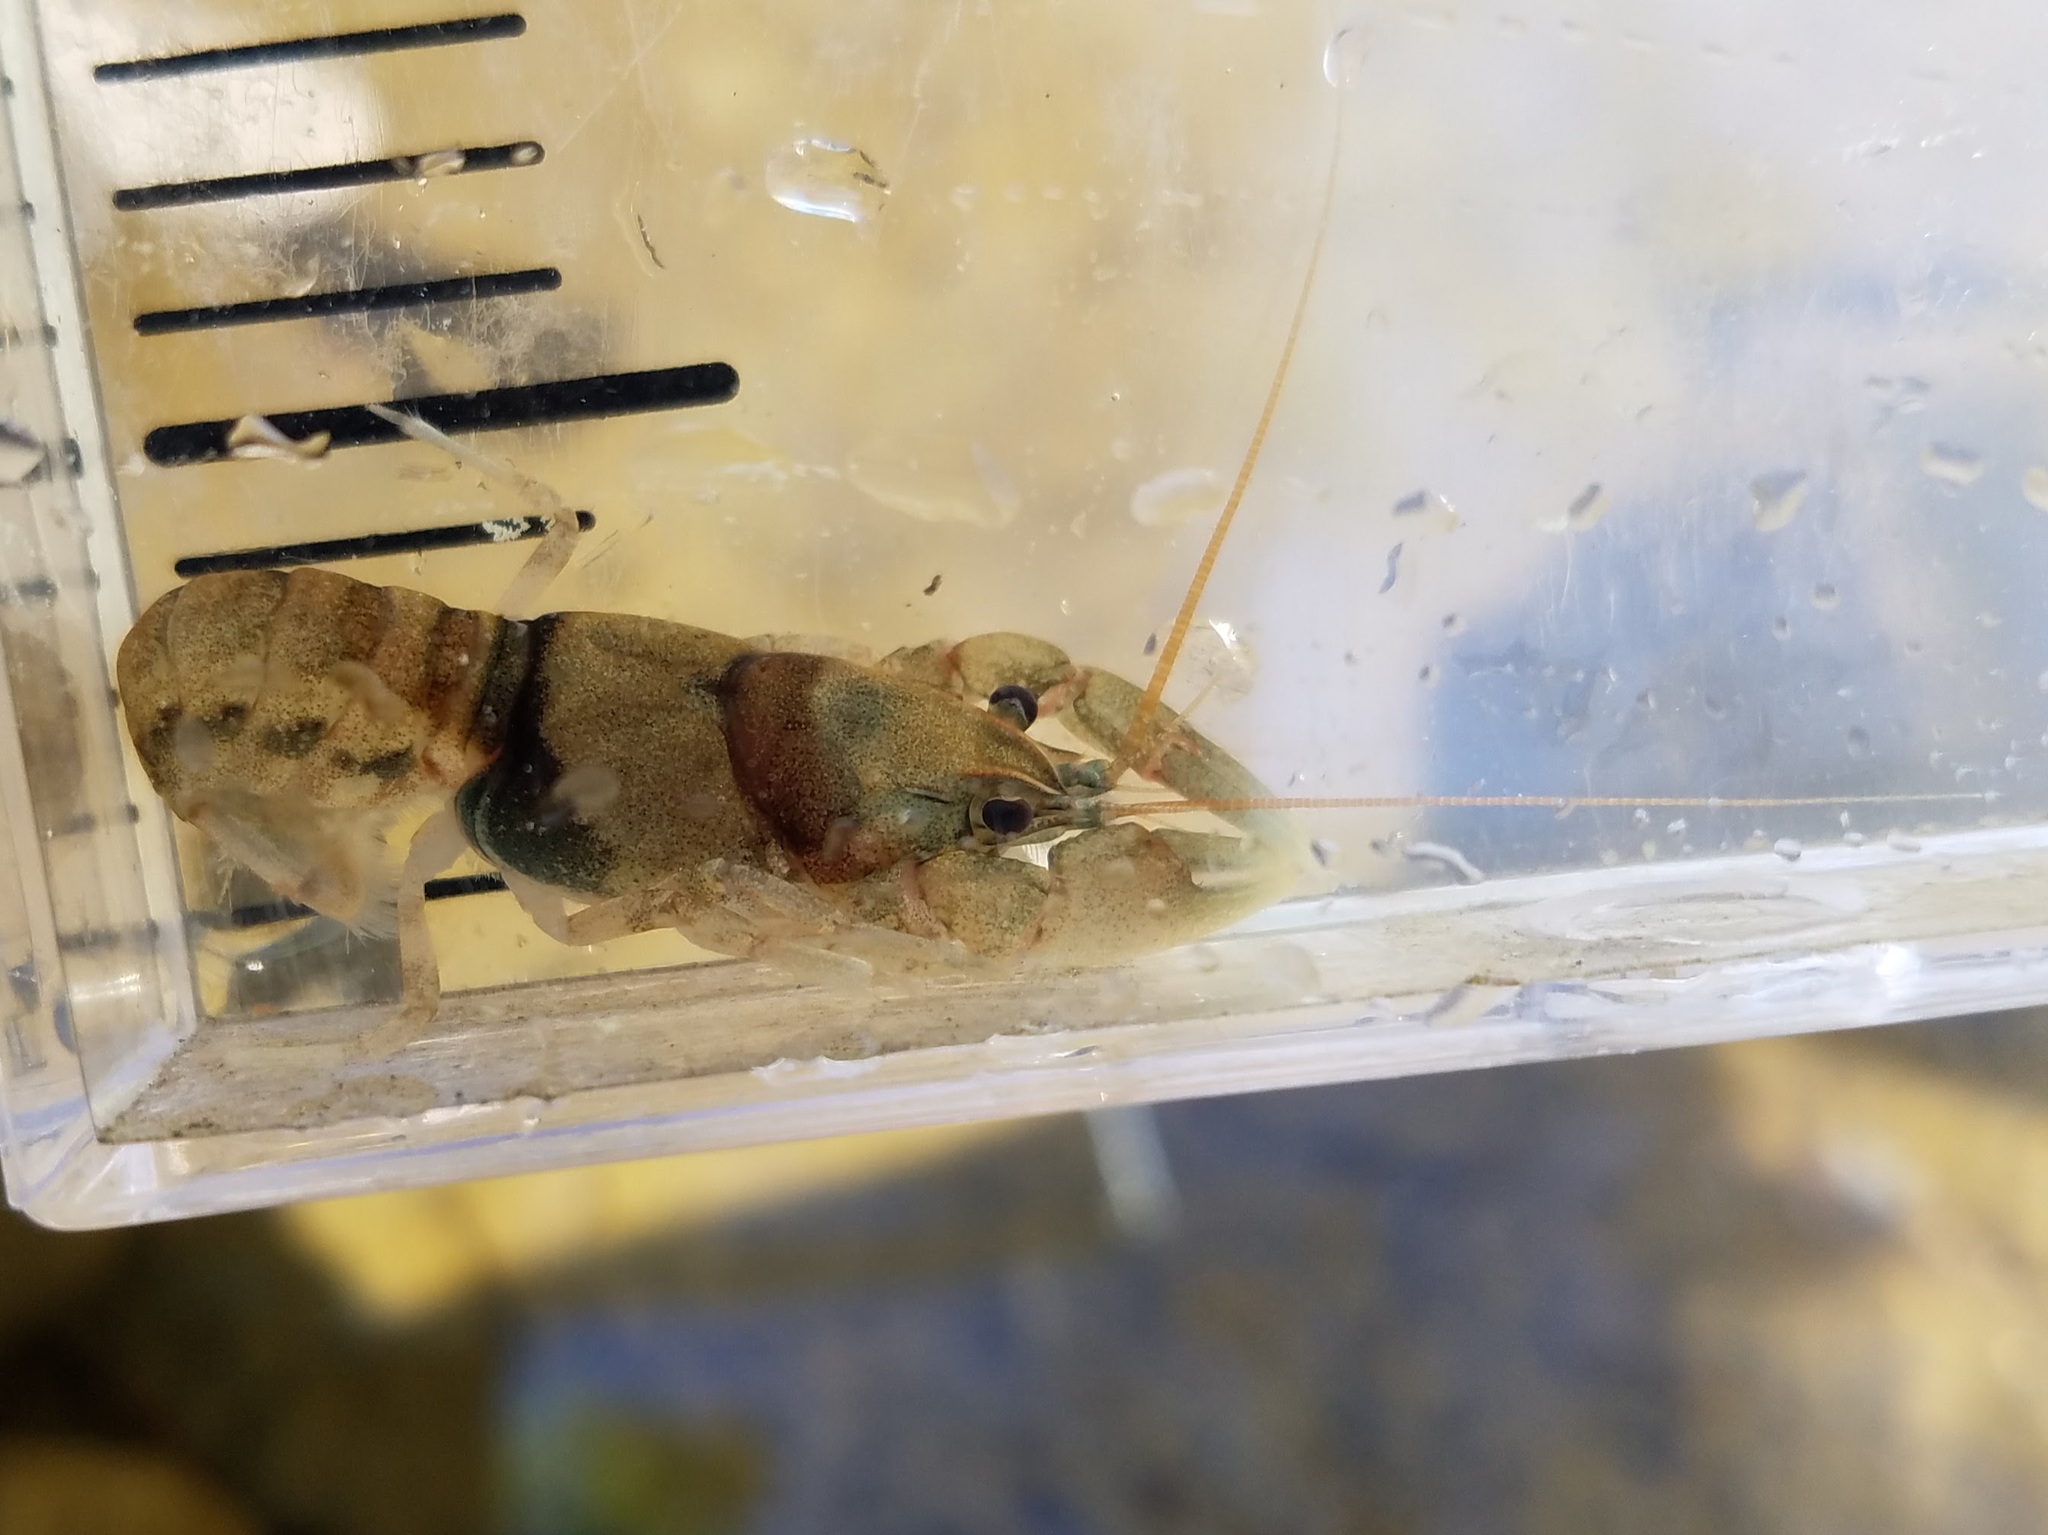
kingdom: Animalia
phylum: Arthropoda
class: Malacostraca
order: Decapoda
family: Cambaridae
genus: Cambarus
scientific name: Cambarus girardianus
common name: Tanback crayfish
